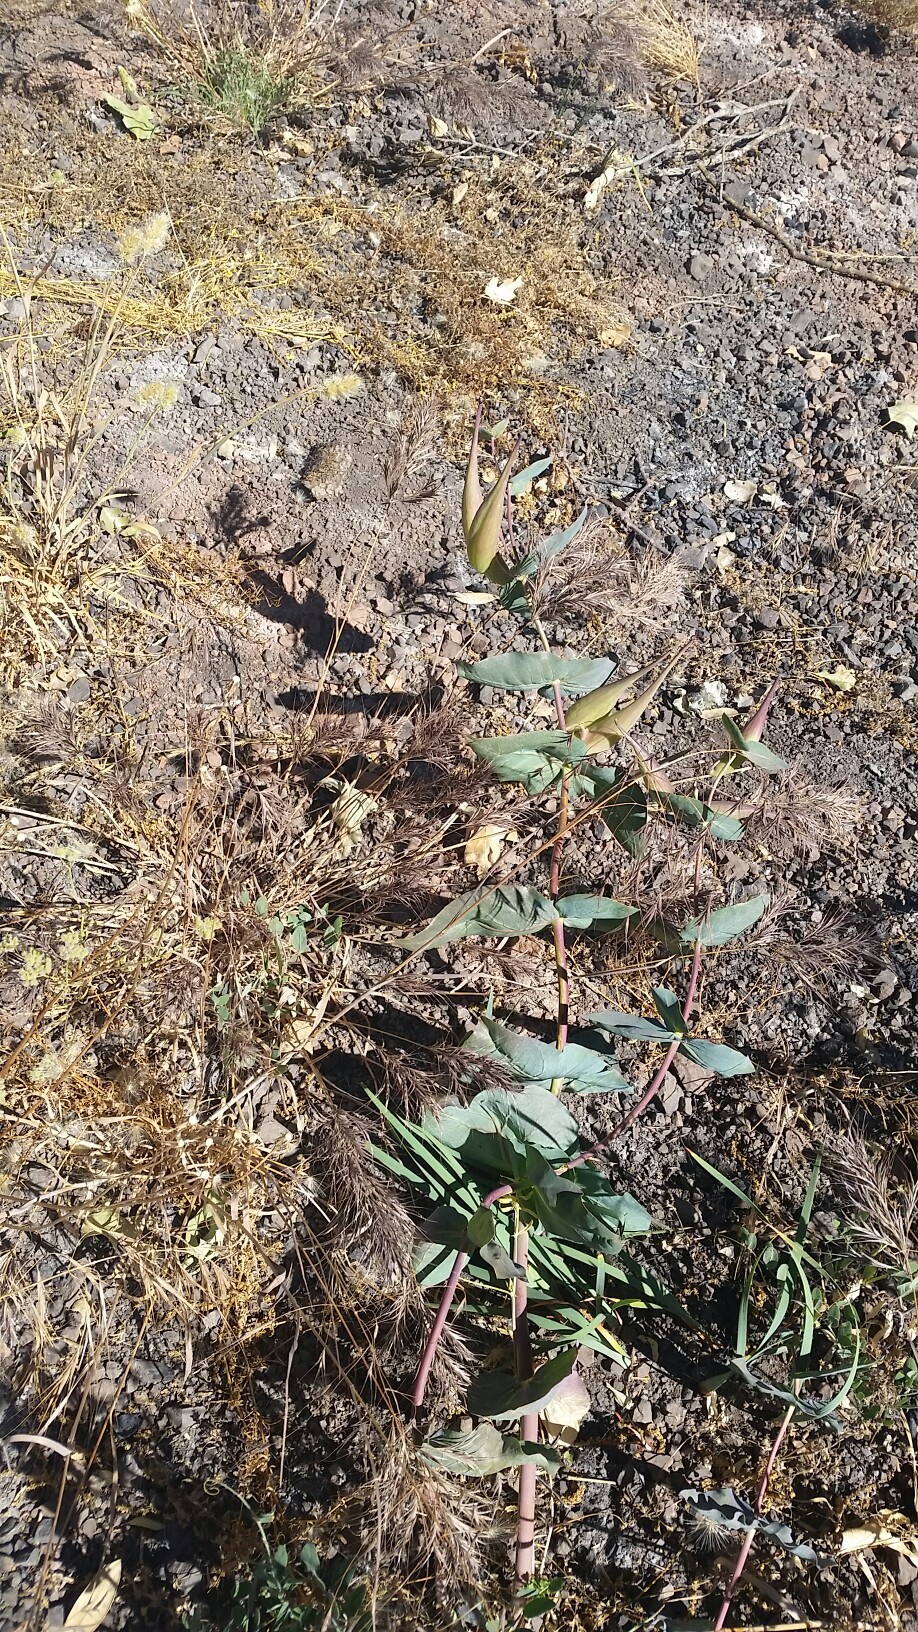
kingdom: Plantae
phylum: Tracheophyta
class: Magnoliopsida
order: Gentianales
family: Apocynaceae
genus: Asclepias
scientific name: Asclepias cordifolia
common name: Purple milkweed
